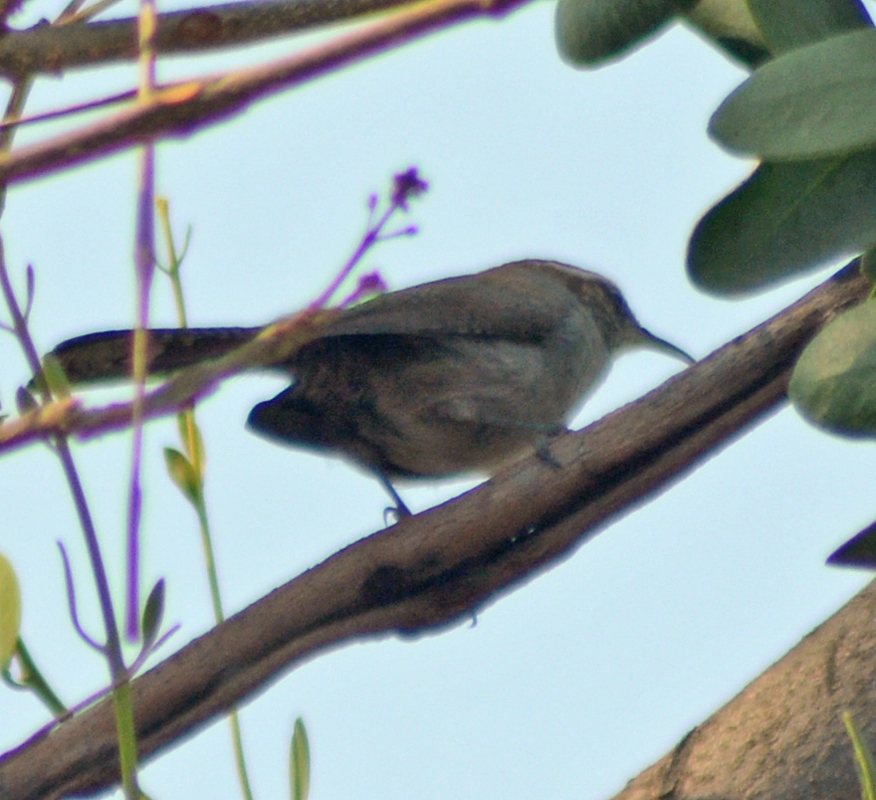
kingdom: Animalia
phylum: Chordata
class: Aves
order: Passeriformes
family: Troglodytidae
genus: Thryomanes
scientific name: Thryomanes bewickii
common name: Bewick's wren
